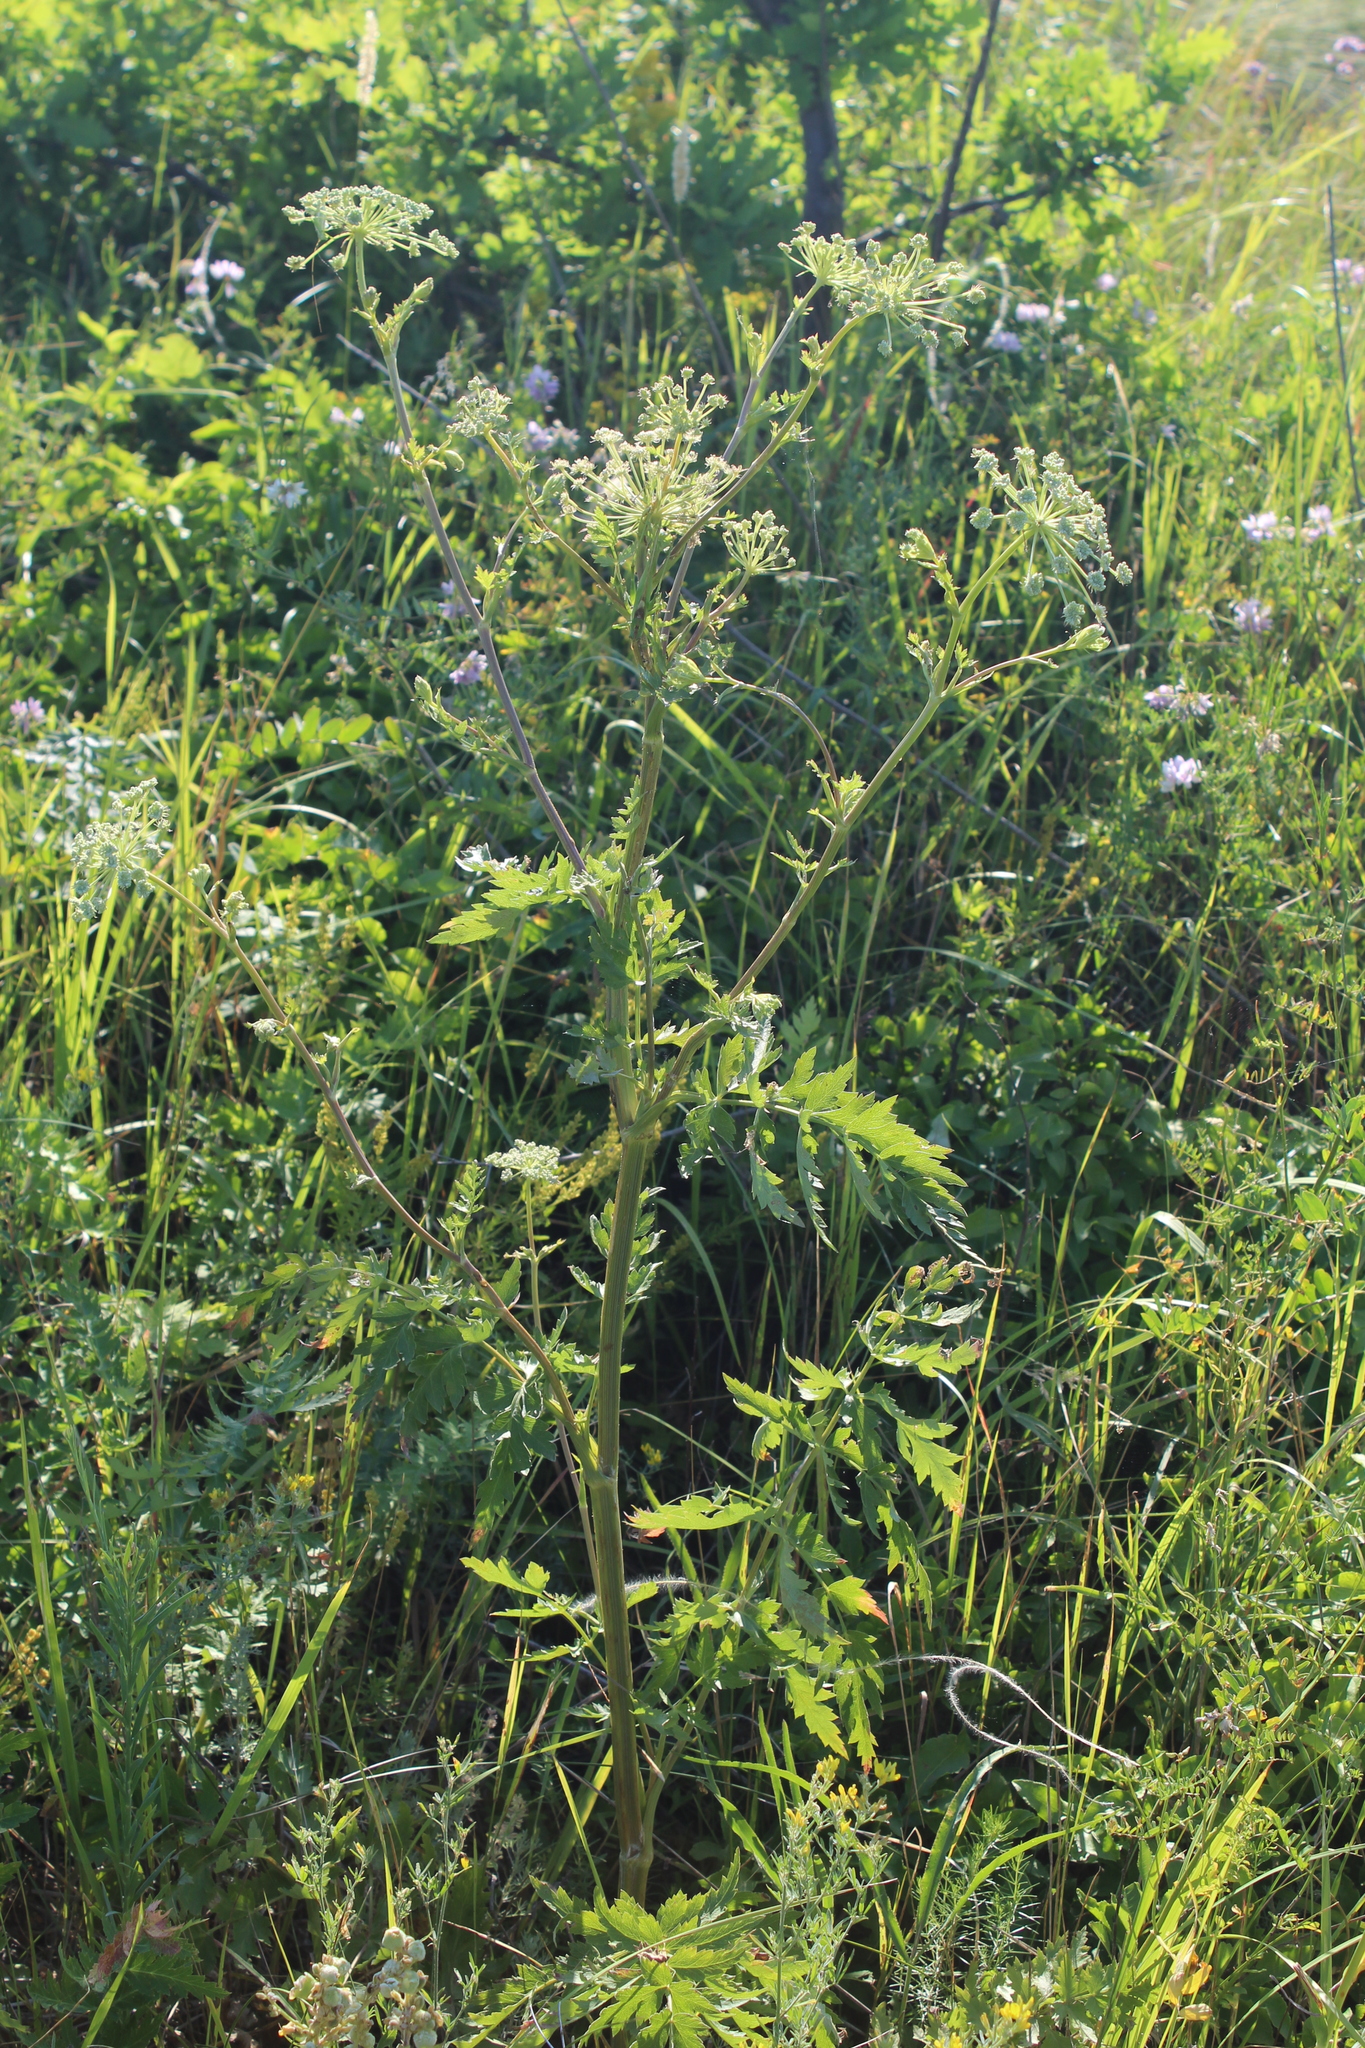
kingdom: Plantae
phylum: Tracheophyta
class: Magnoliopsida
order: Apiales
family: Apiaceae
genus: Seseli
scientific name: Seseli libanotis
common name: Mooncarrot
